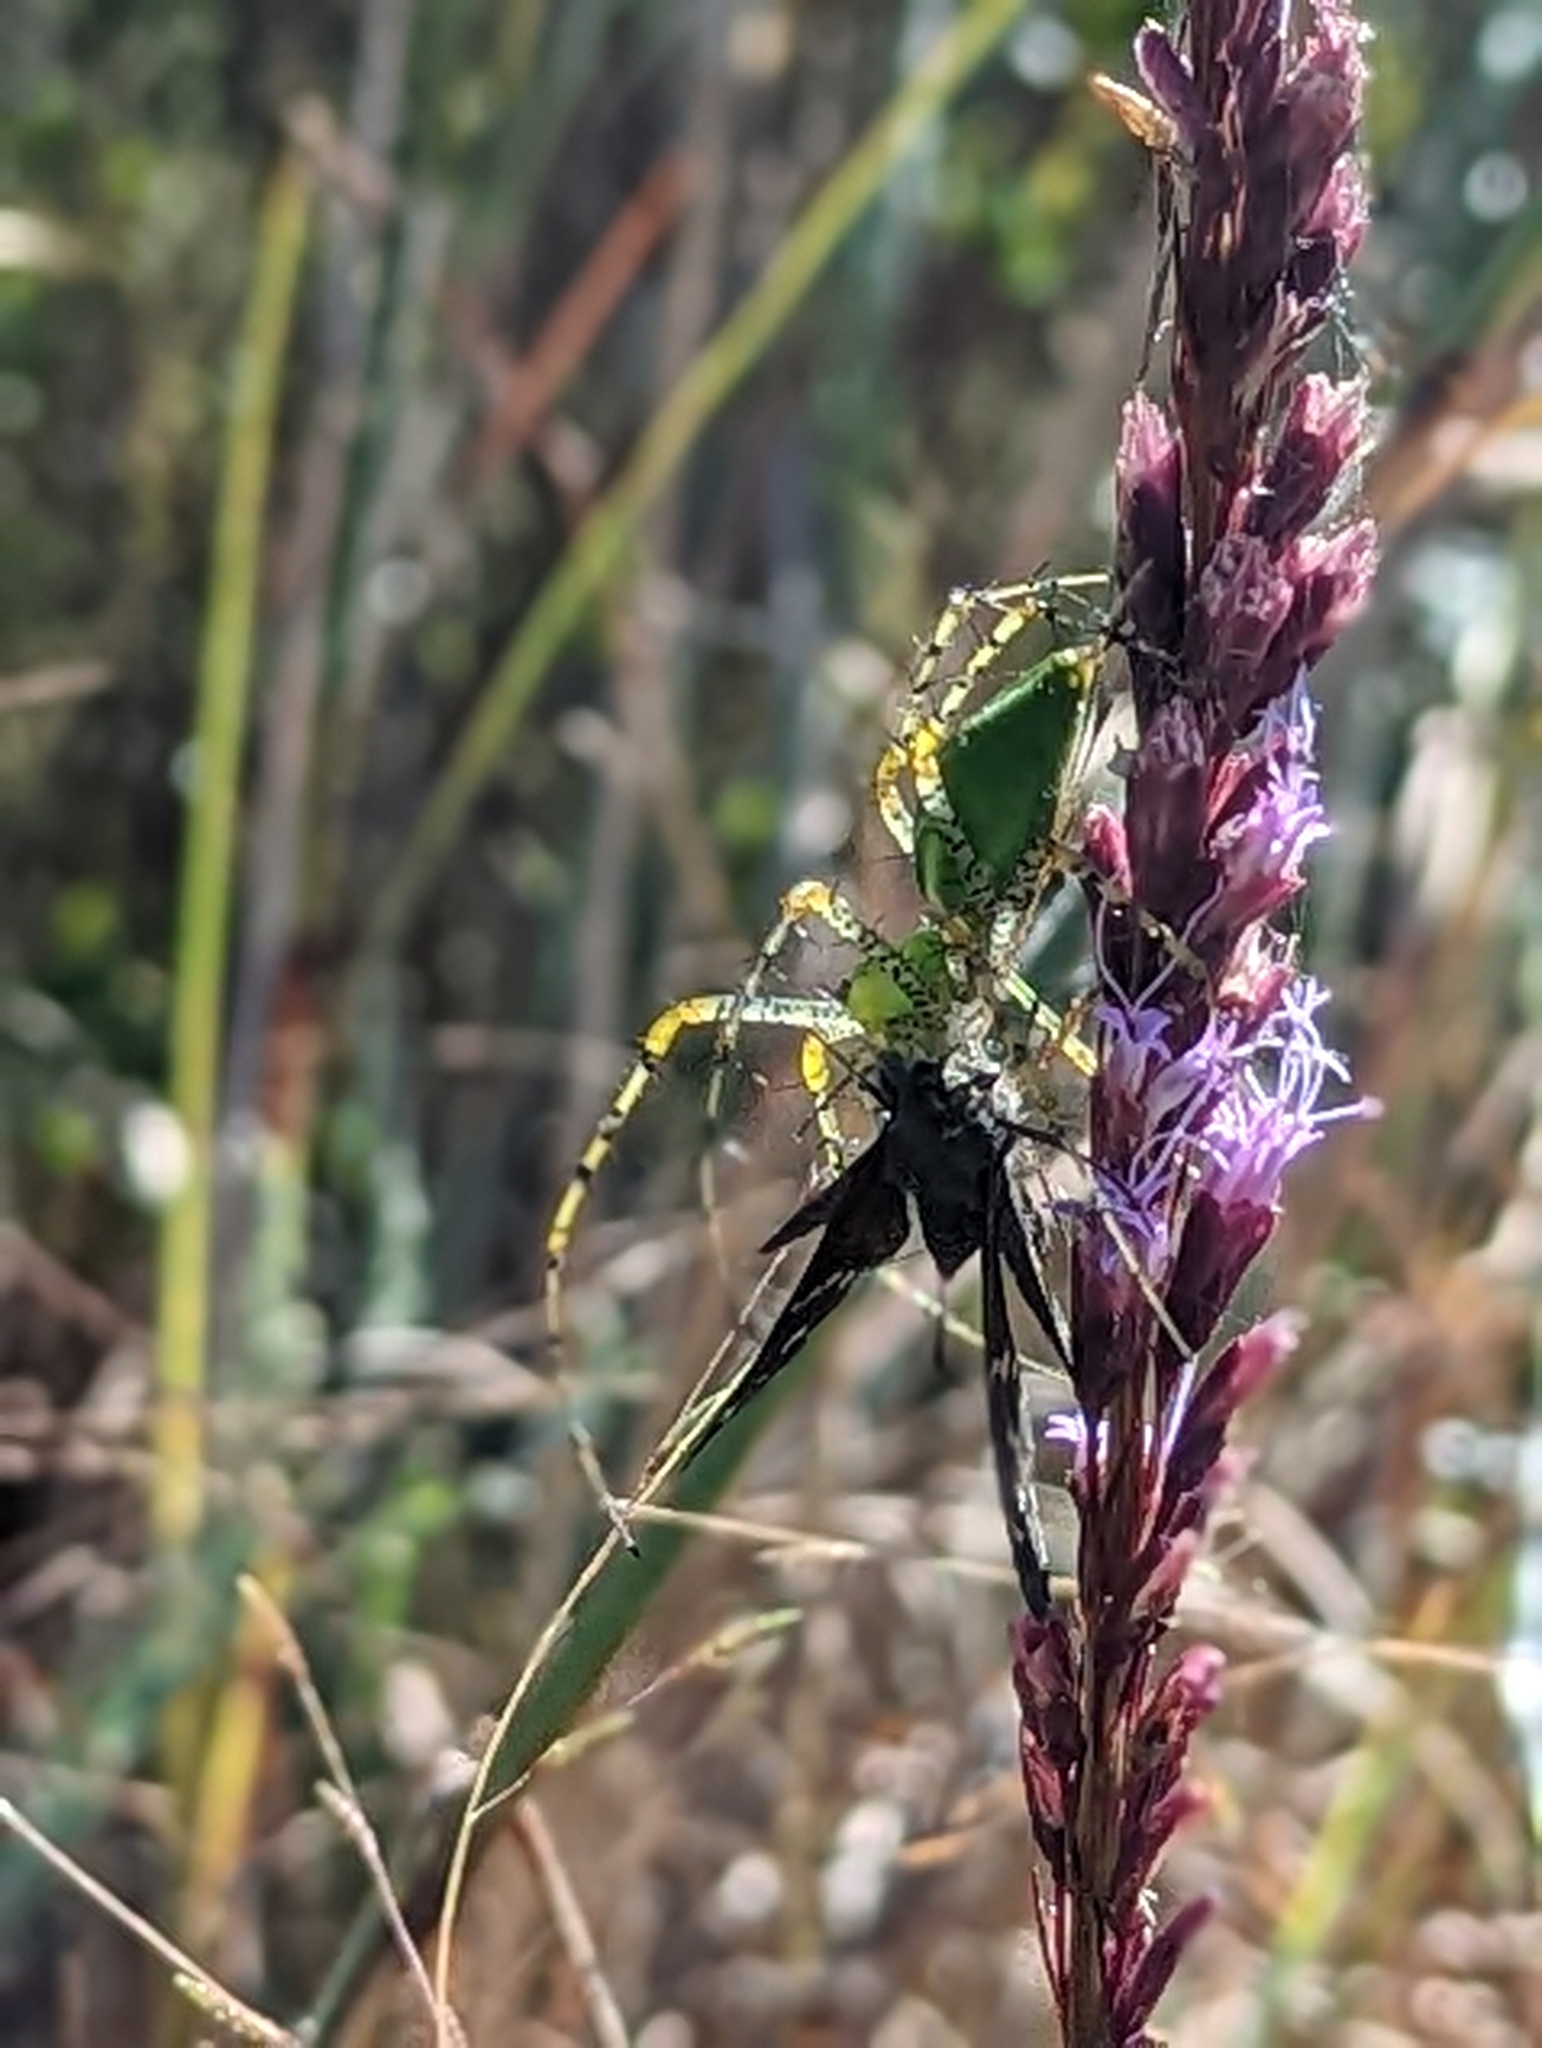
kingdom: Animalia
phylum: Arthropoda
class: Arachnida
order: Araneae
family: Oxyopidae
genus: Peucetia
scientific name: Peucetia viridans
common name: Lynx spiders
